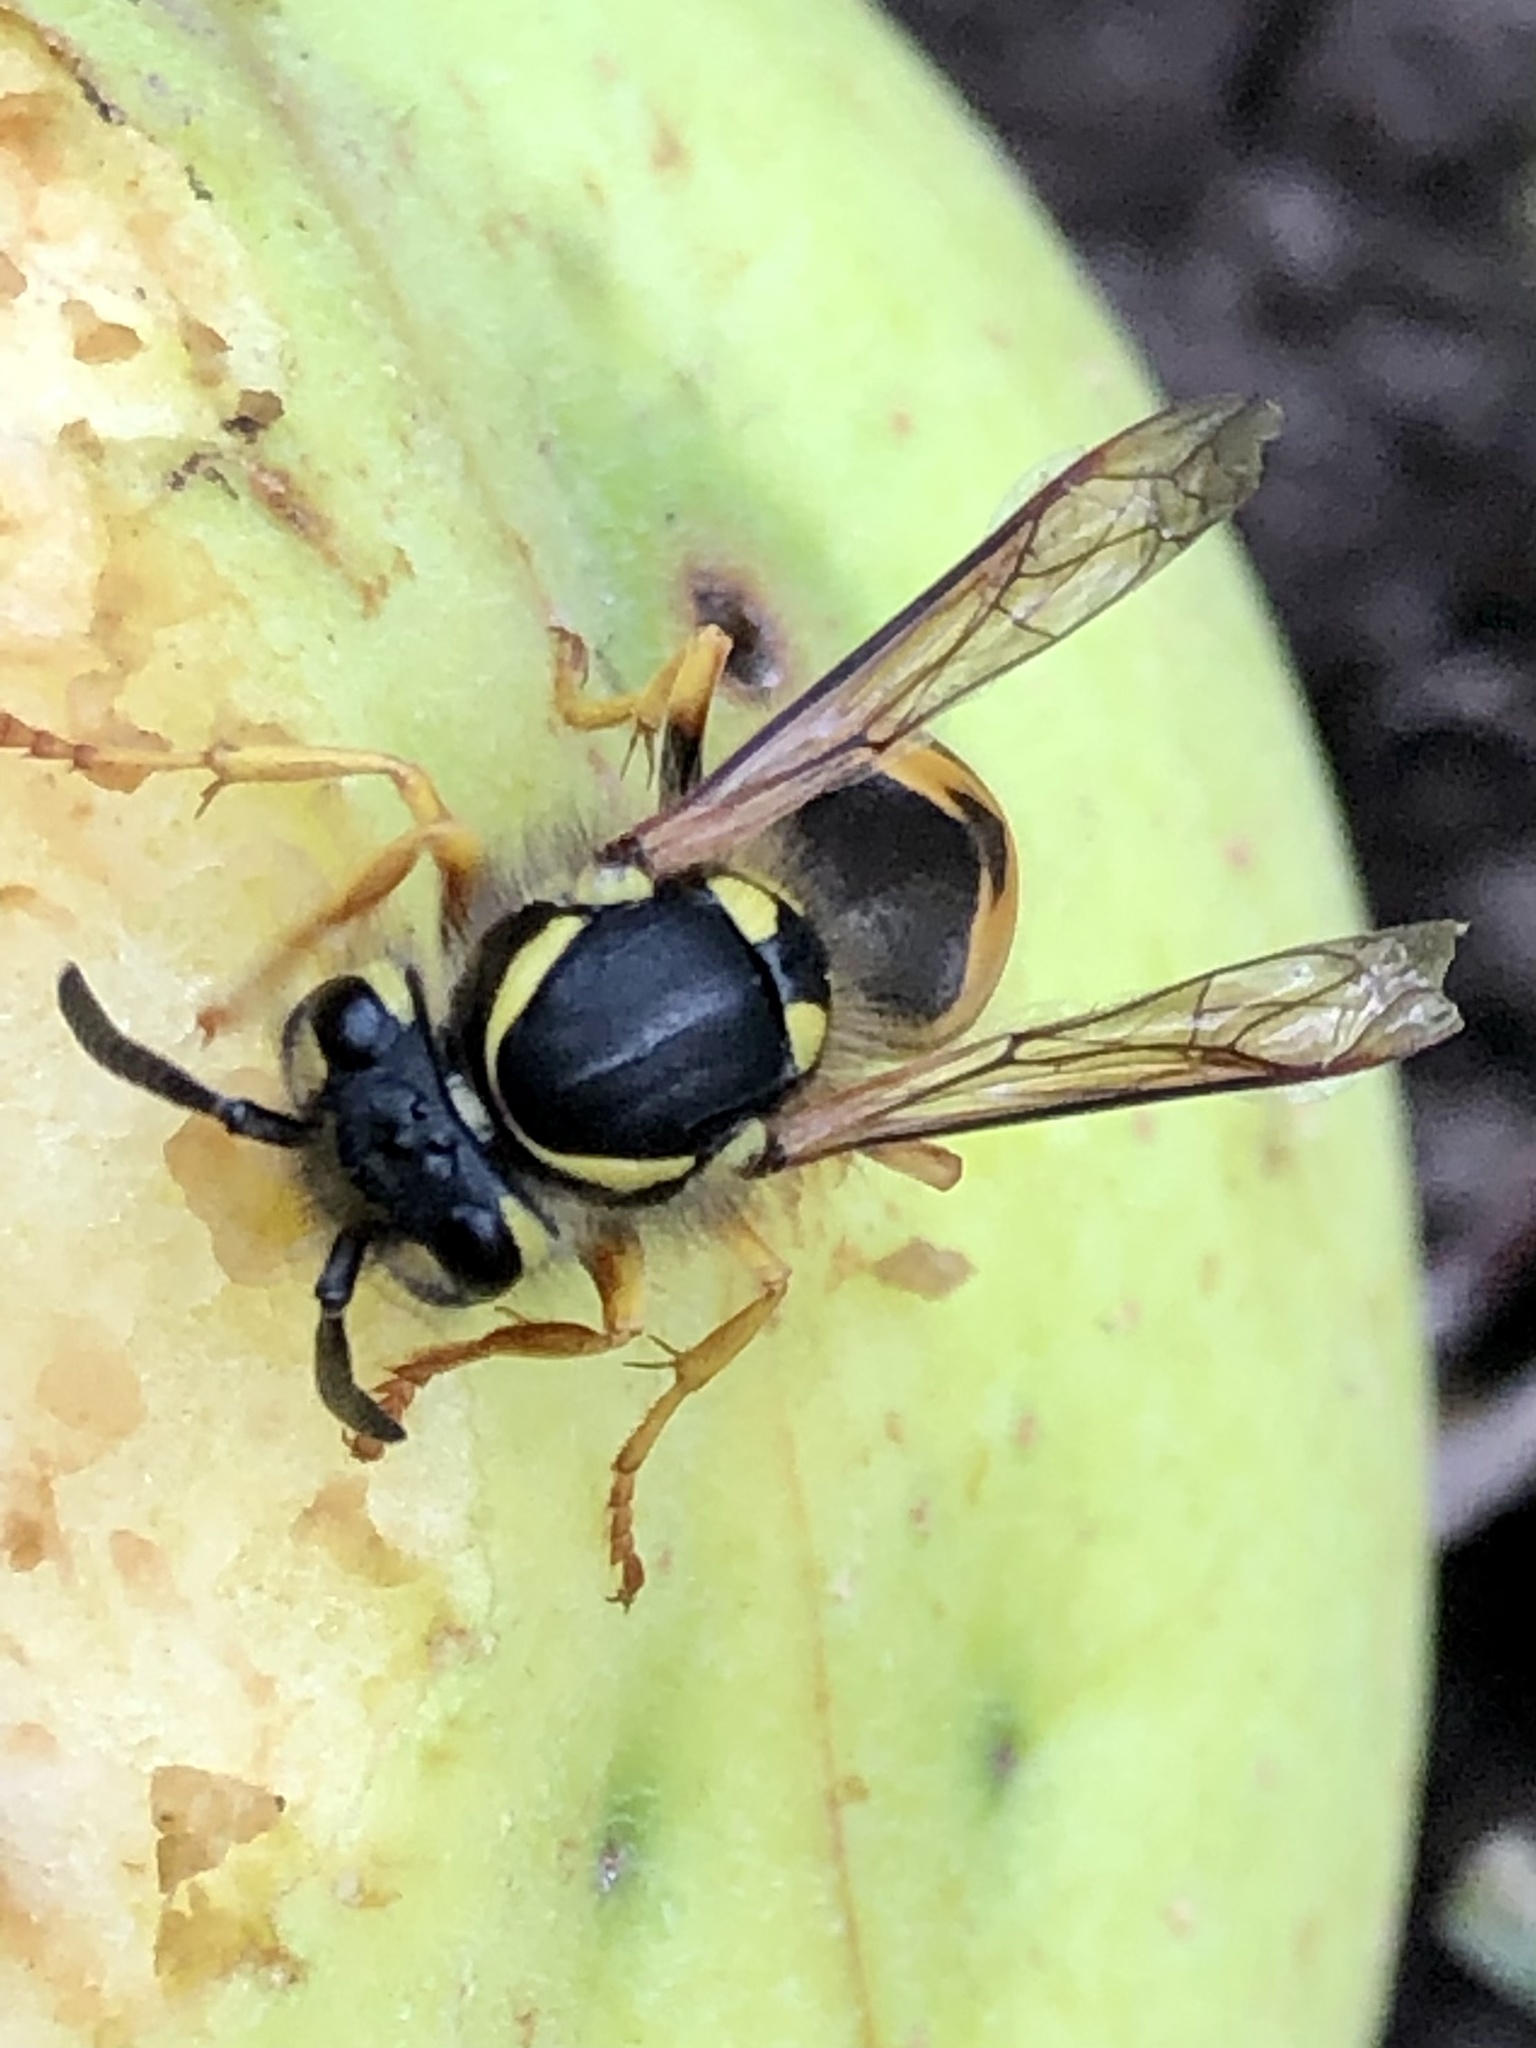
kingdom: Animalia
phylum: Arthropoda
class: Insecta
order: Hymenoptera
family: Vespidae
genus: Vespula
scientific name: Vespula germanica
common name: German wasp
